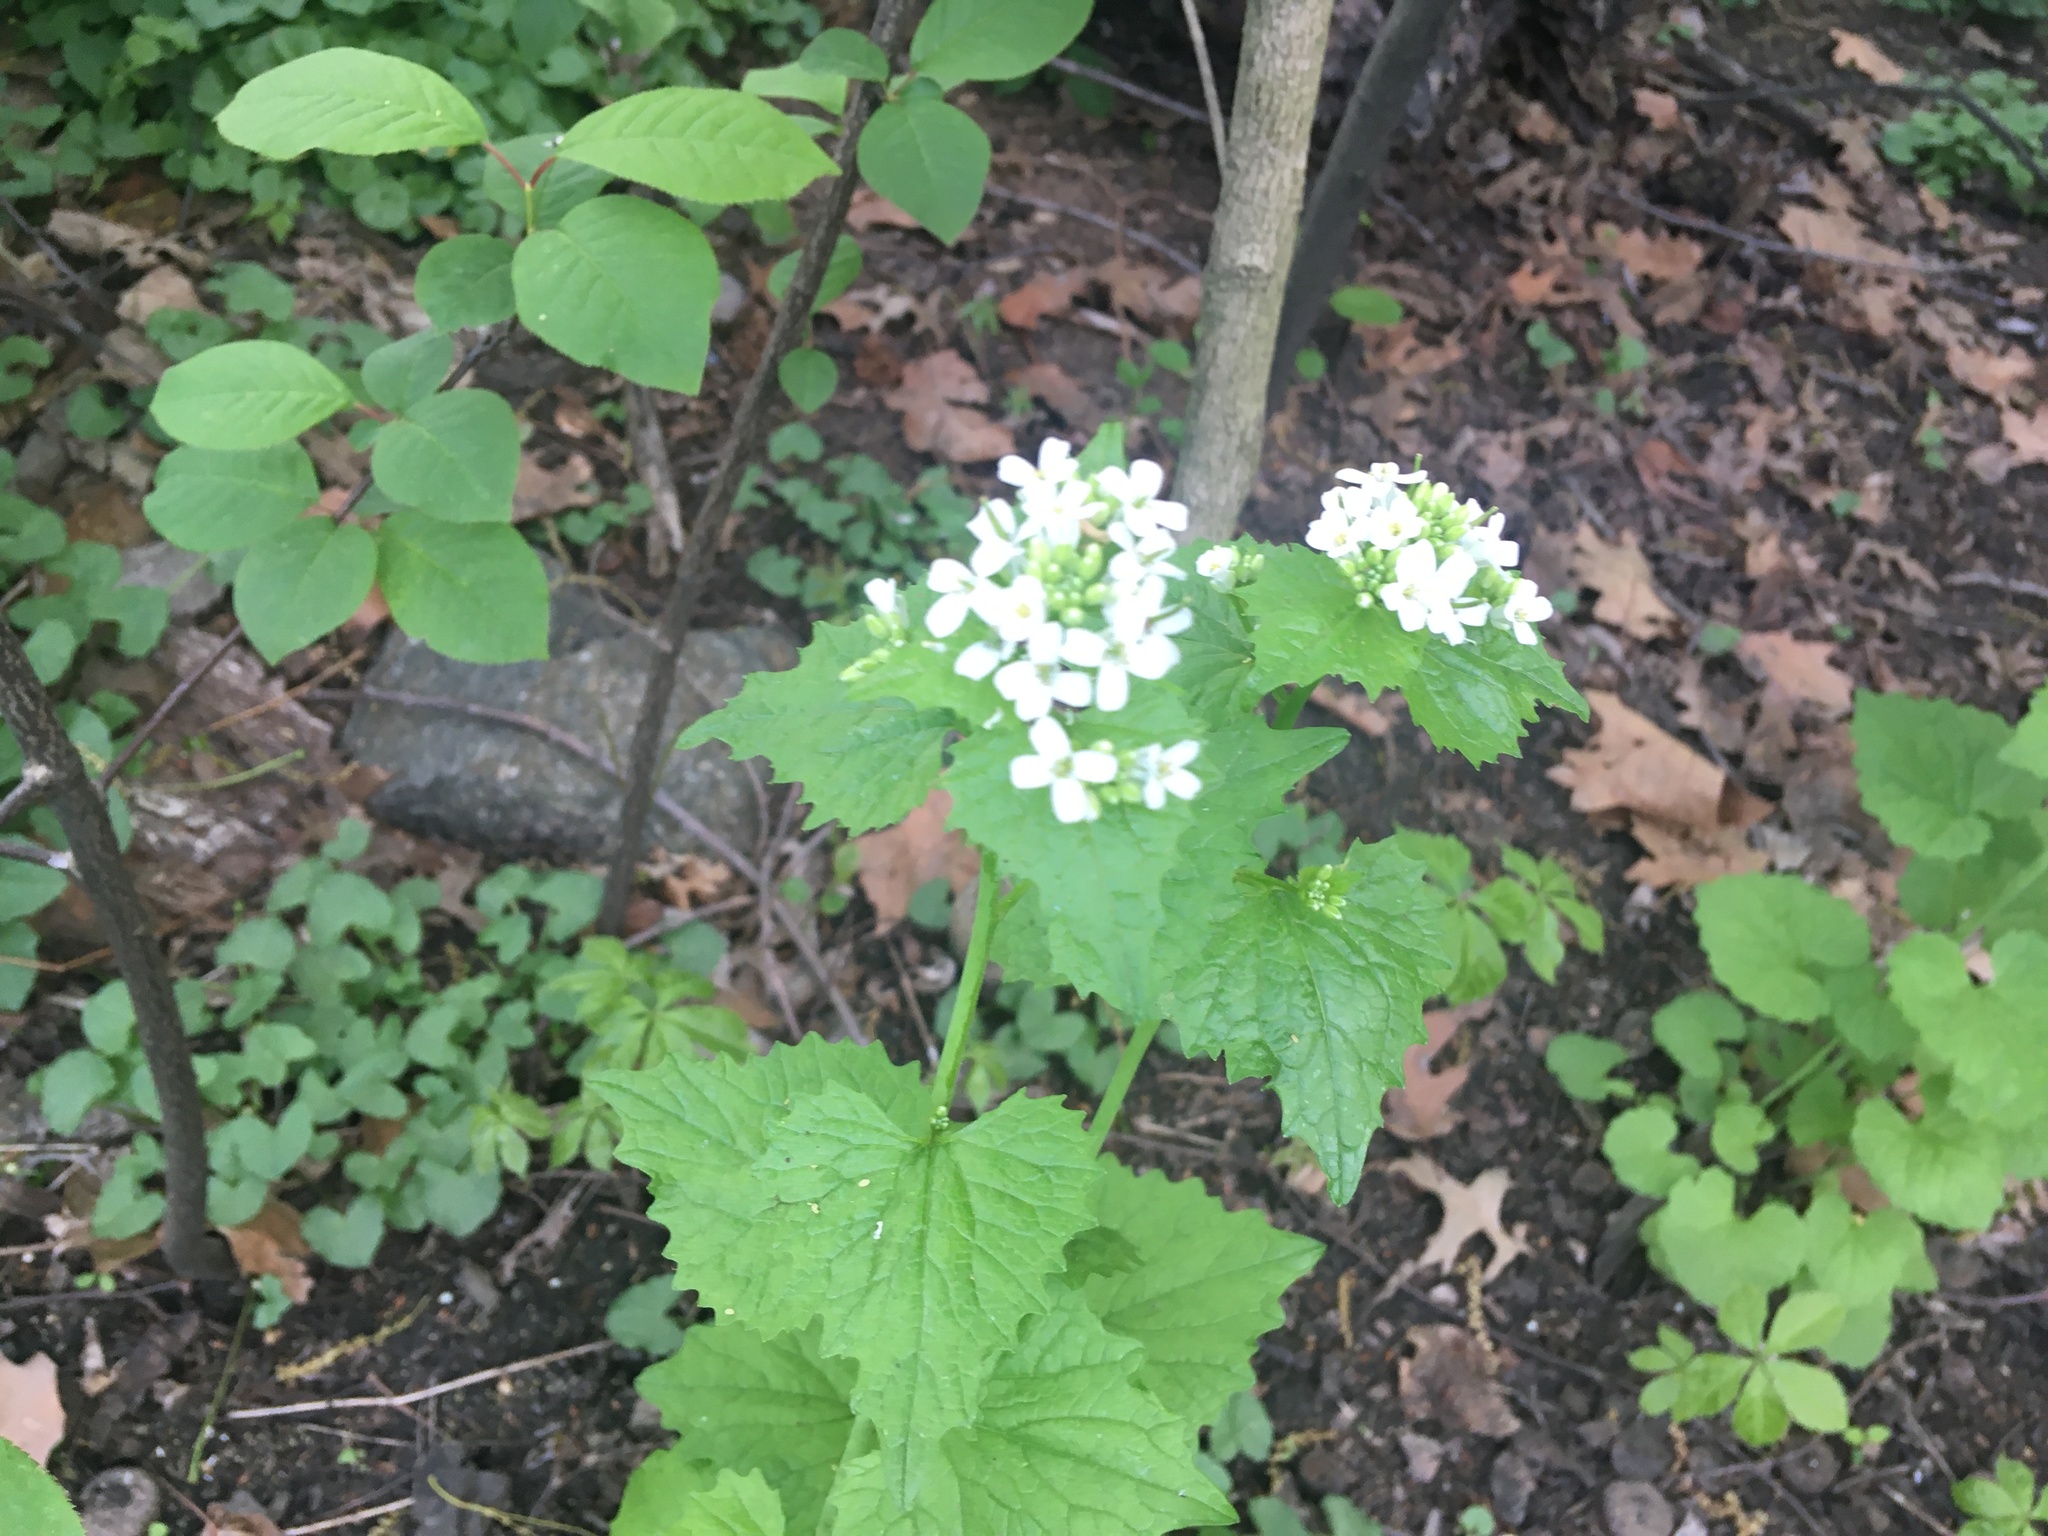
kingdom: Plantae
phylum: Tracheophyta
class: Magnoliopsida
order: Brassicales
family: Brassicaceae
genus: Alliaria
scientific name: Alliaria petiolata
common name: Garlic mustard
